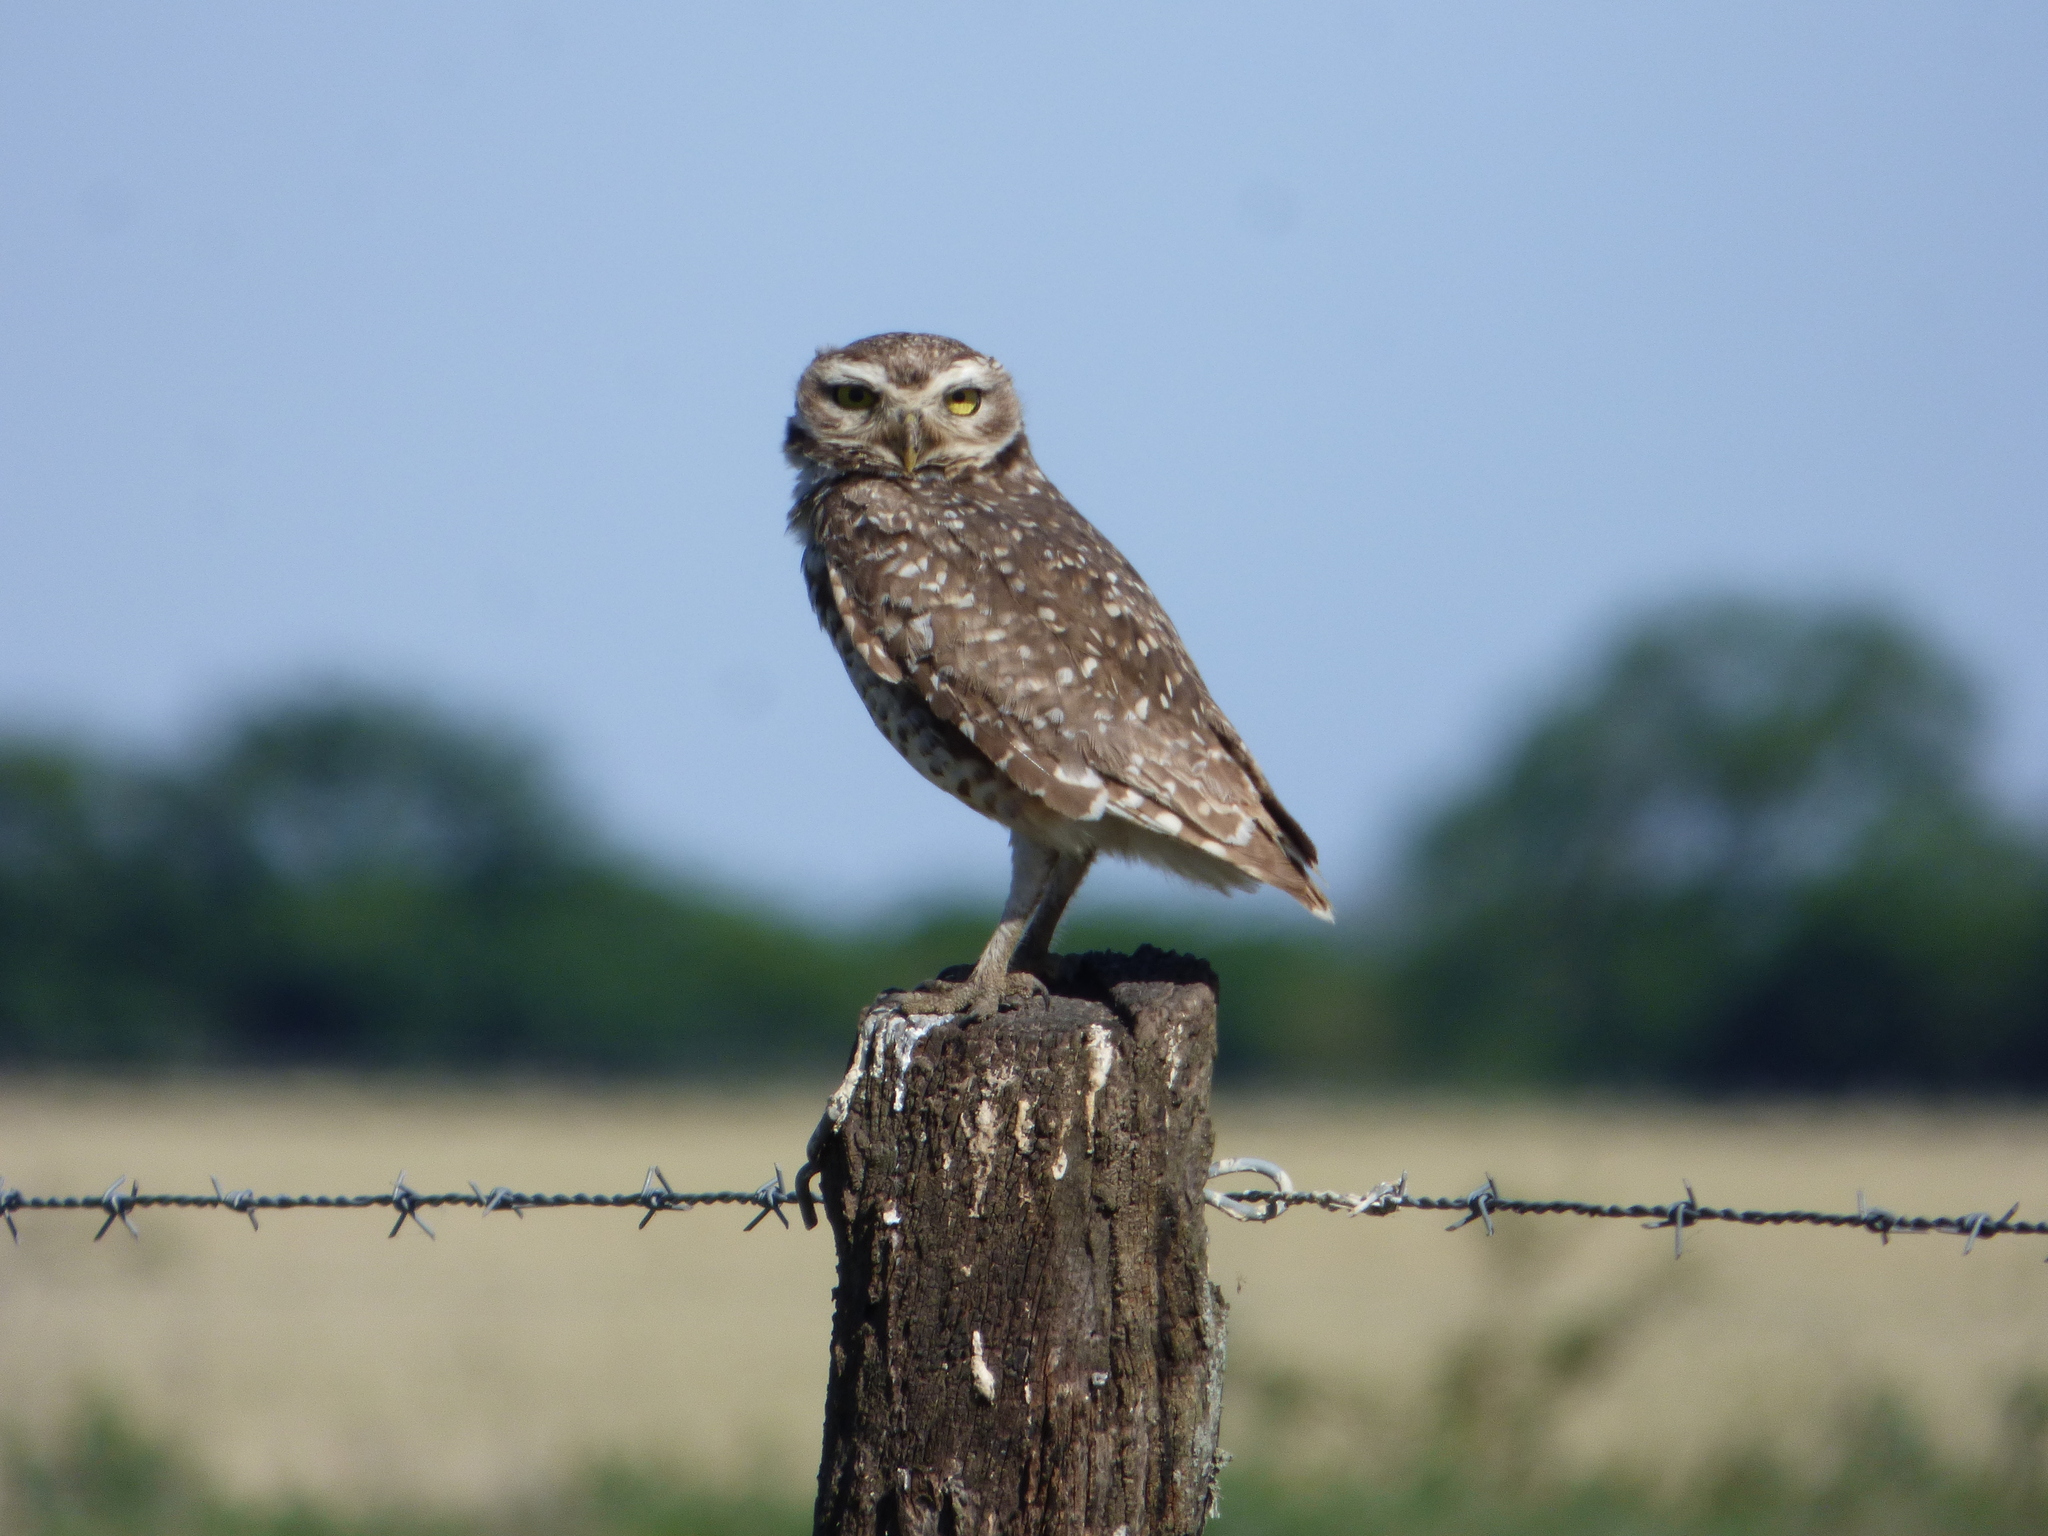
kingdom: Animalia
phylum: Chordata
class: Aves
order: Strigiformes
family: Strigidae
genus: Athene
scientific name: Athene cunicularia
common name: Burrowing owl
